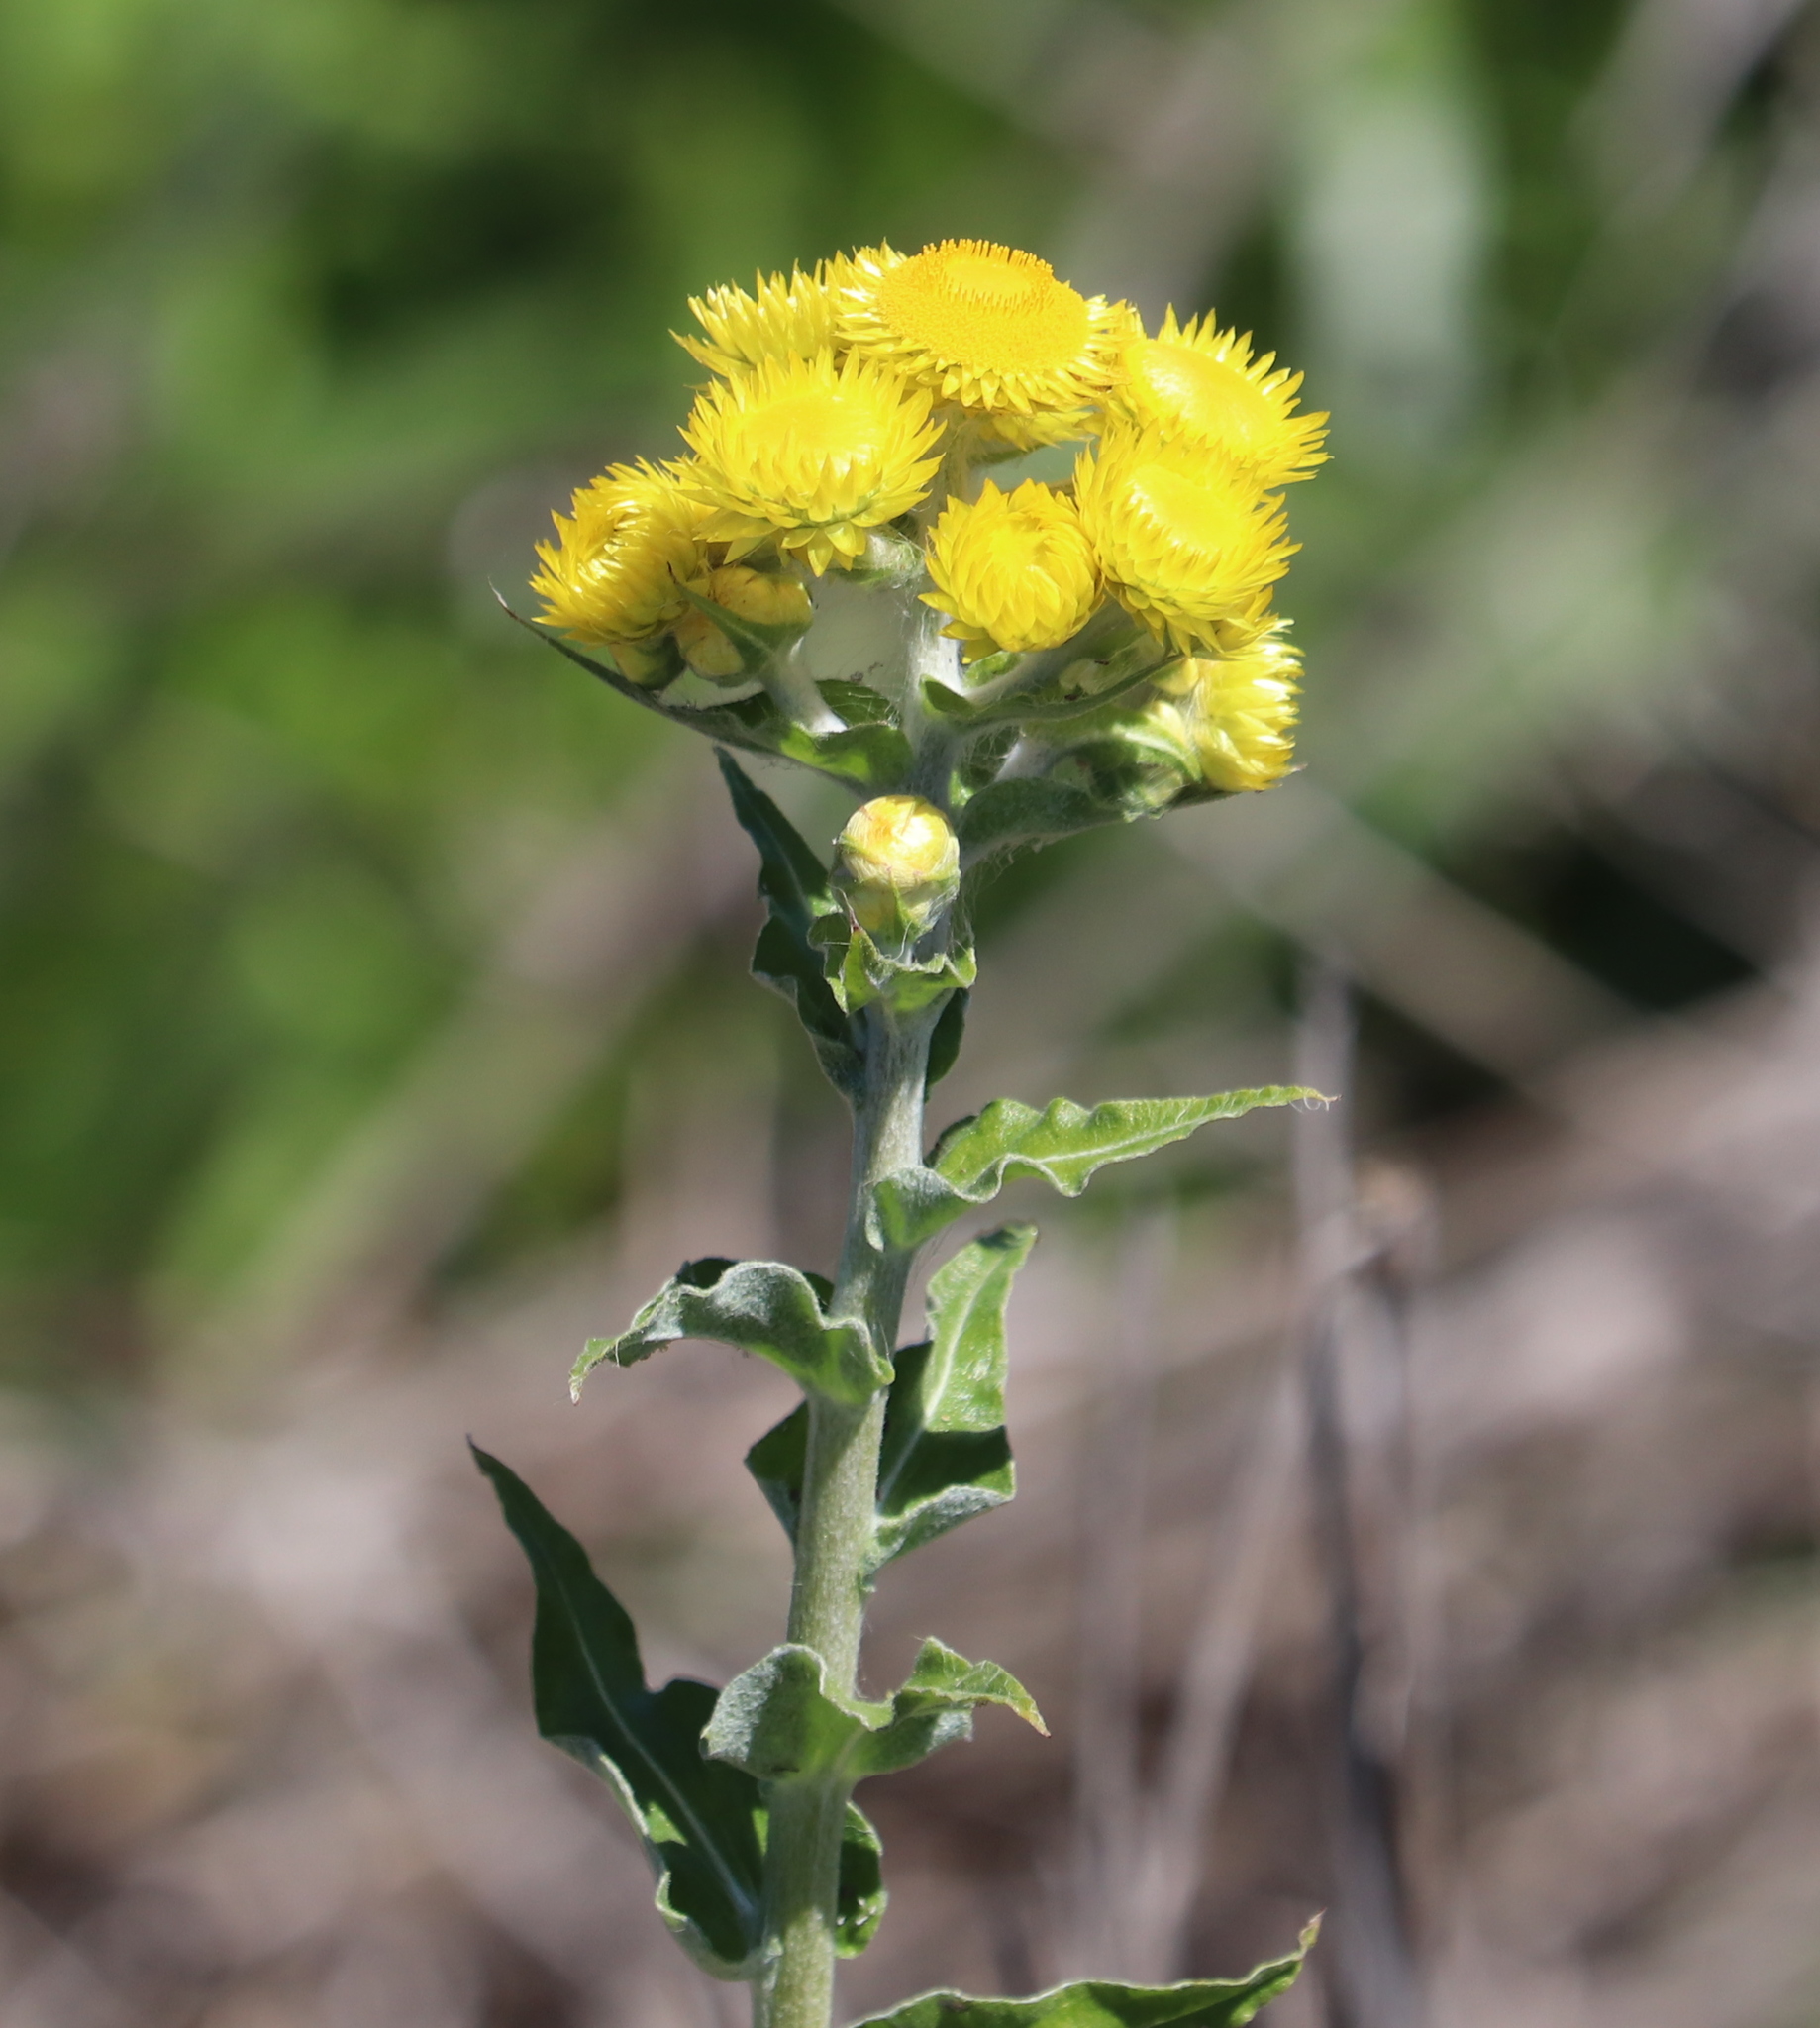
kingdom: Plantae
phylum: Tracheophyta
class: Magnoliopsida
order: Asterales
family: Asteraceae
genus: Helichrysum
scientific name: Helichrysum foetidum
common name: Stinking everlasting
